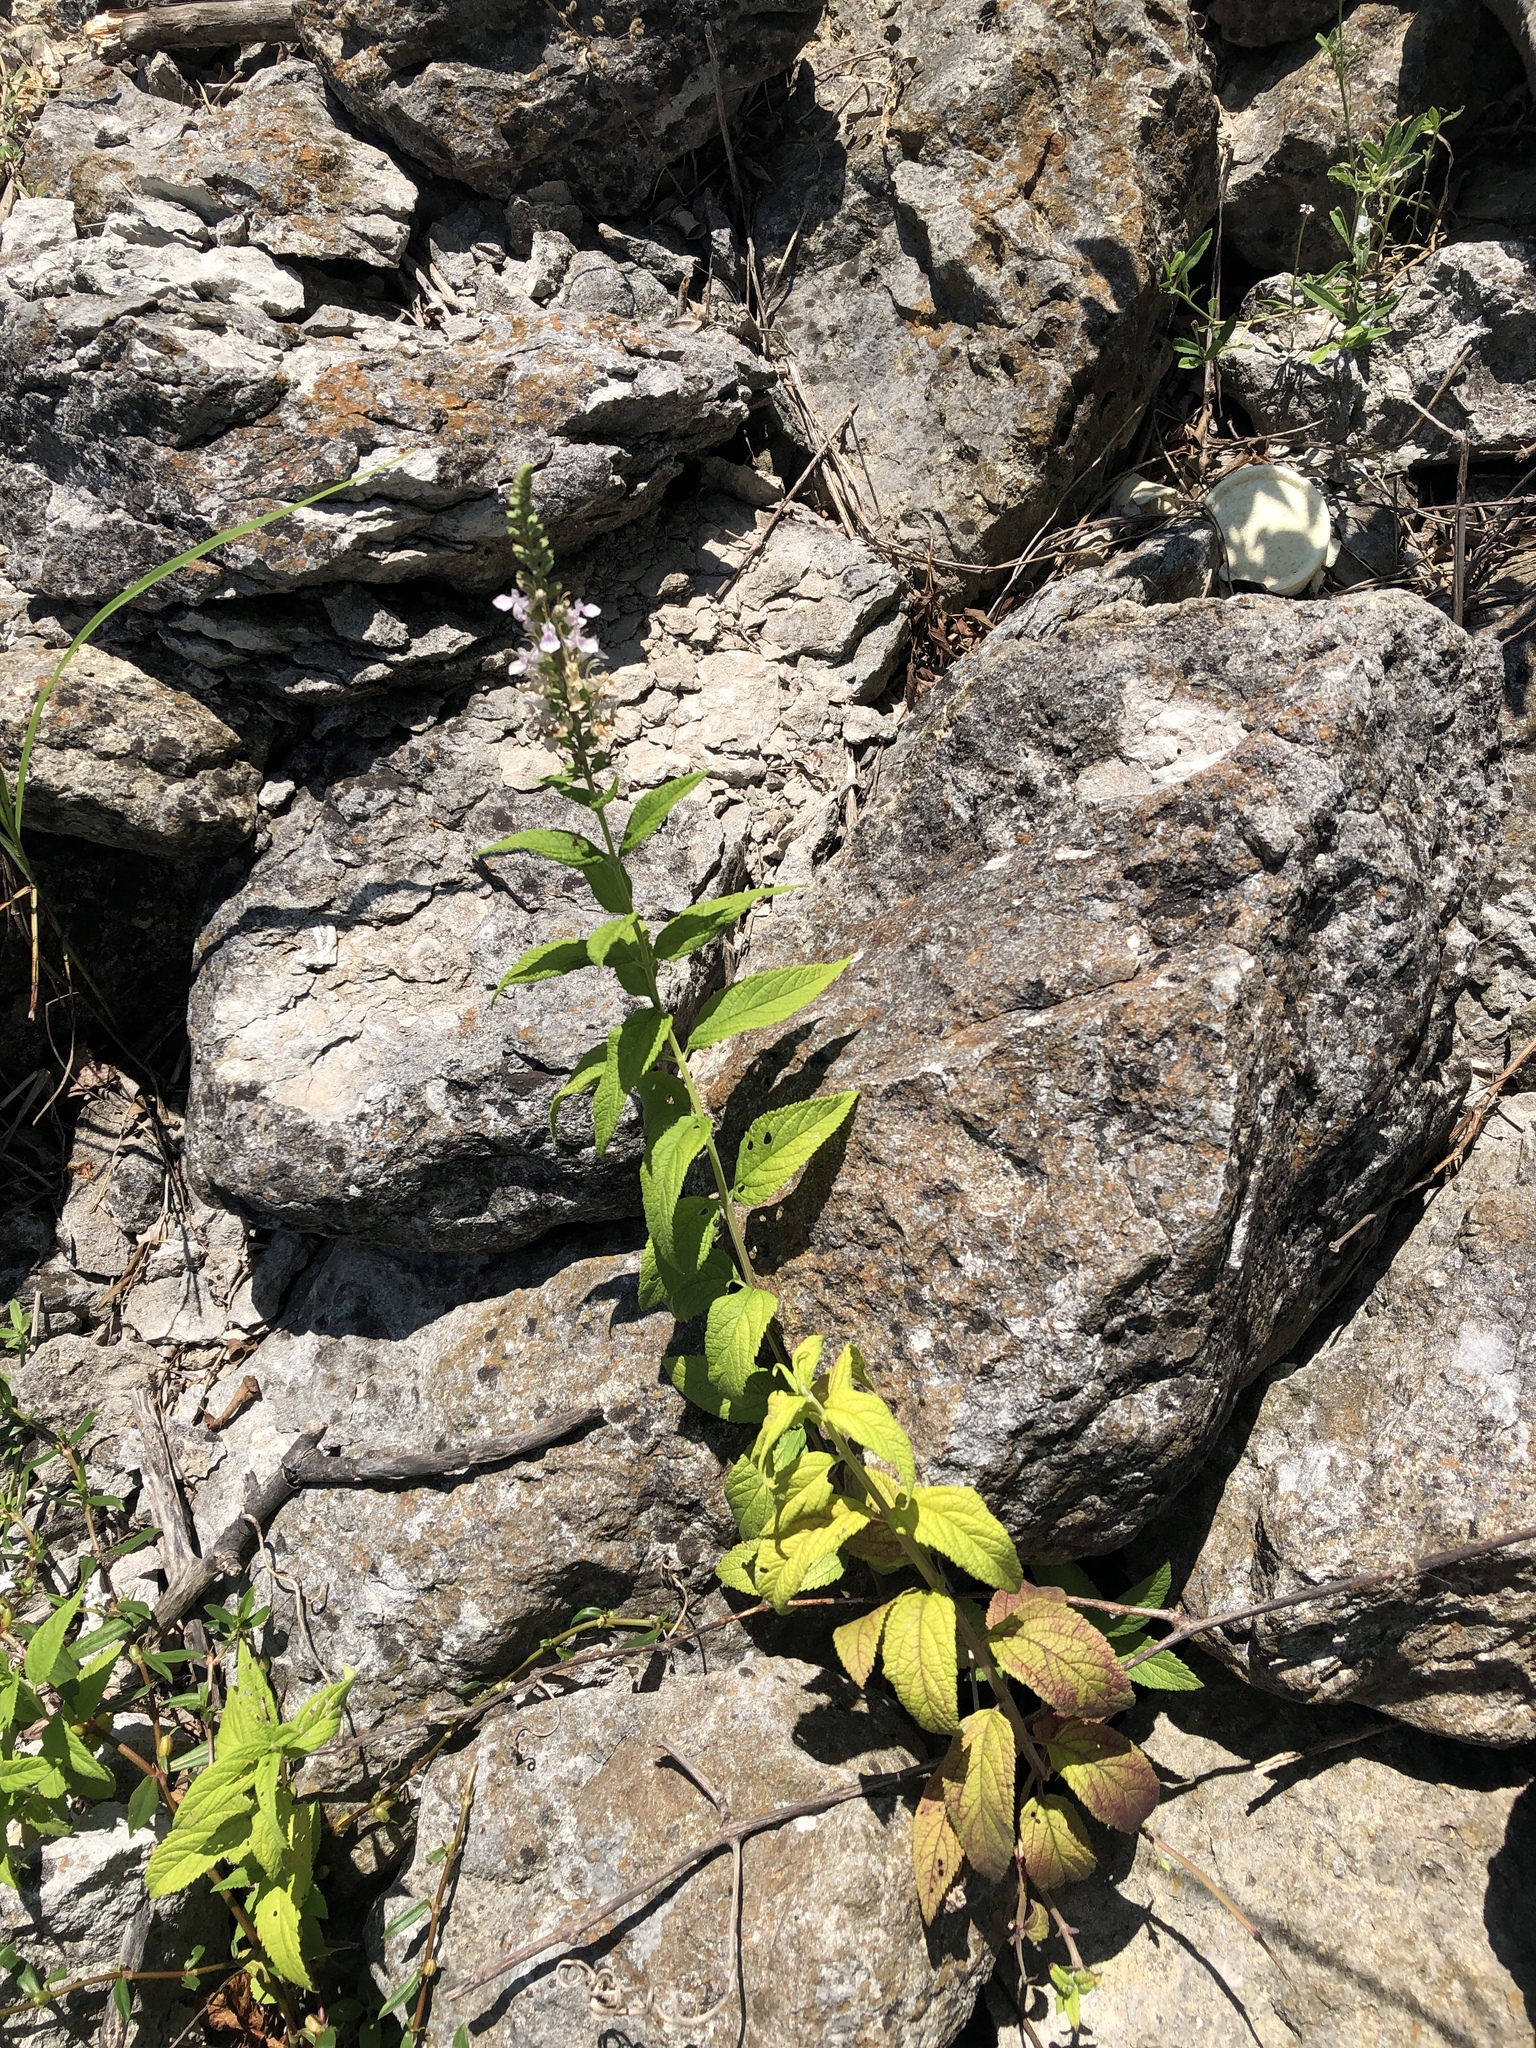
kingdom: Plantae
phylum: Tracheophyta
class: Magnoliopsida
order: Lamiales
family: Lamiaceae
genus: Teucrium
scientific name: Teucrium canadense
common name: American germander
